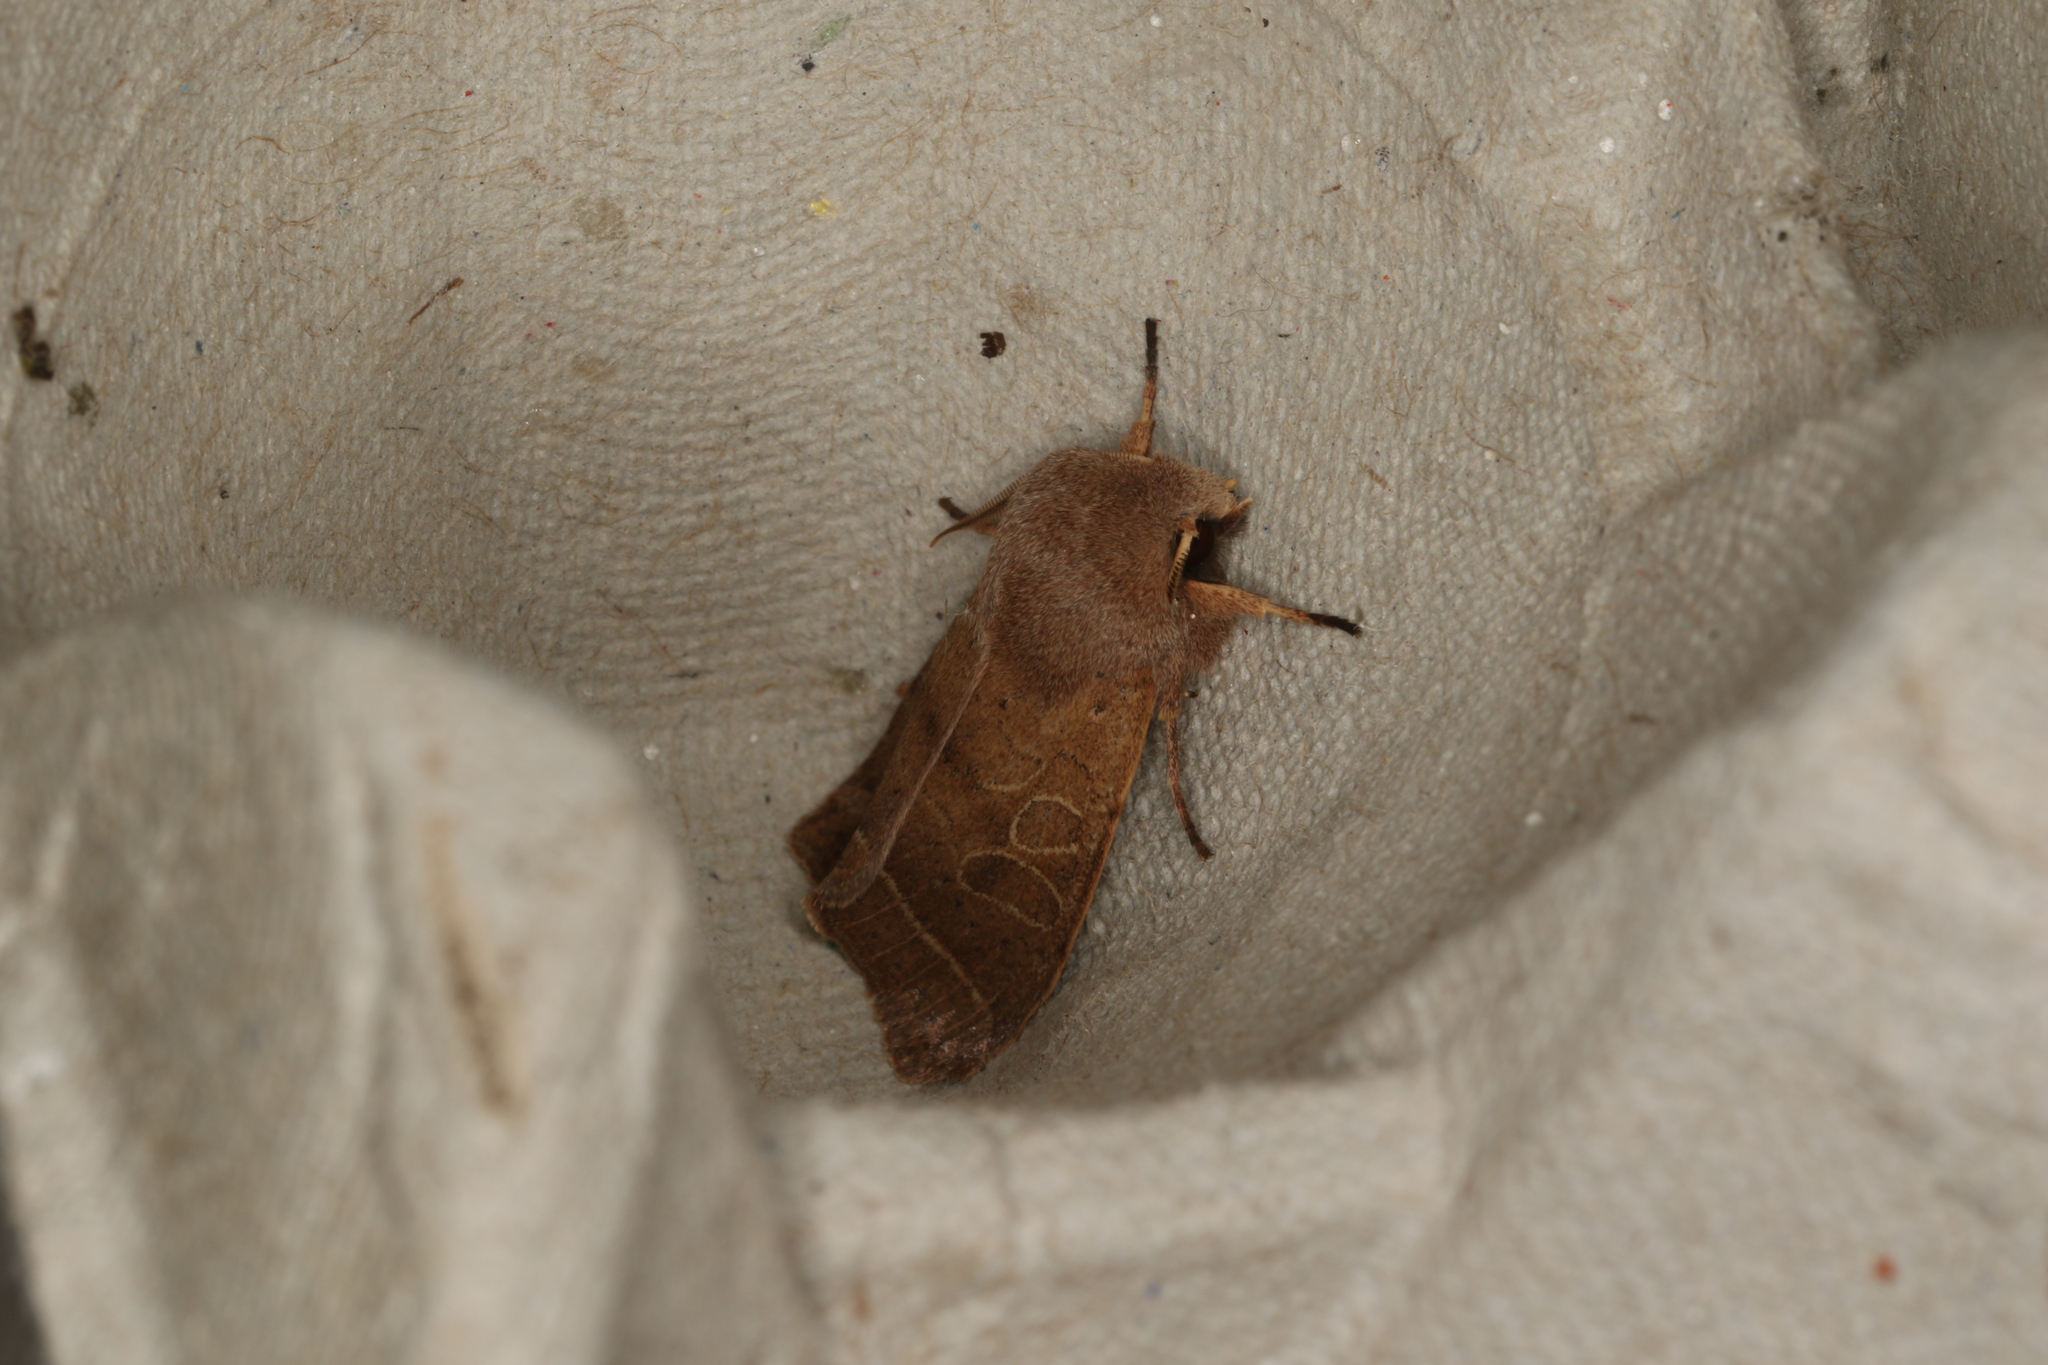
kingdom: Animalia
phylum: Arthropoda
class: Insecta
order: Lepidoptera
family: Noctuidae
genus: Orthosia
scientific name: Orthosia cerasi
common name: Common quaker
